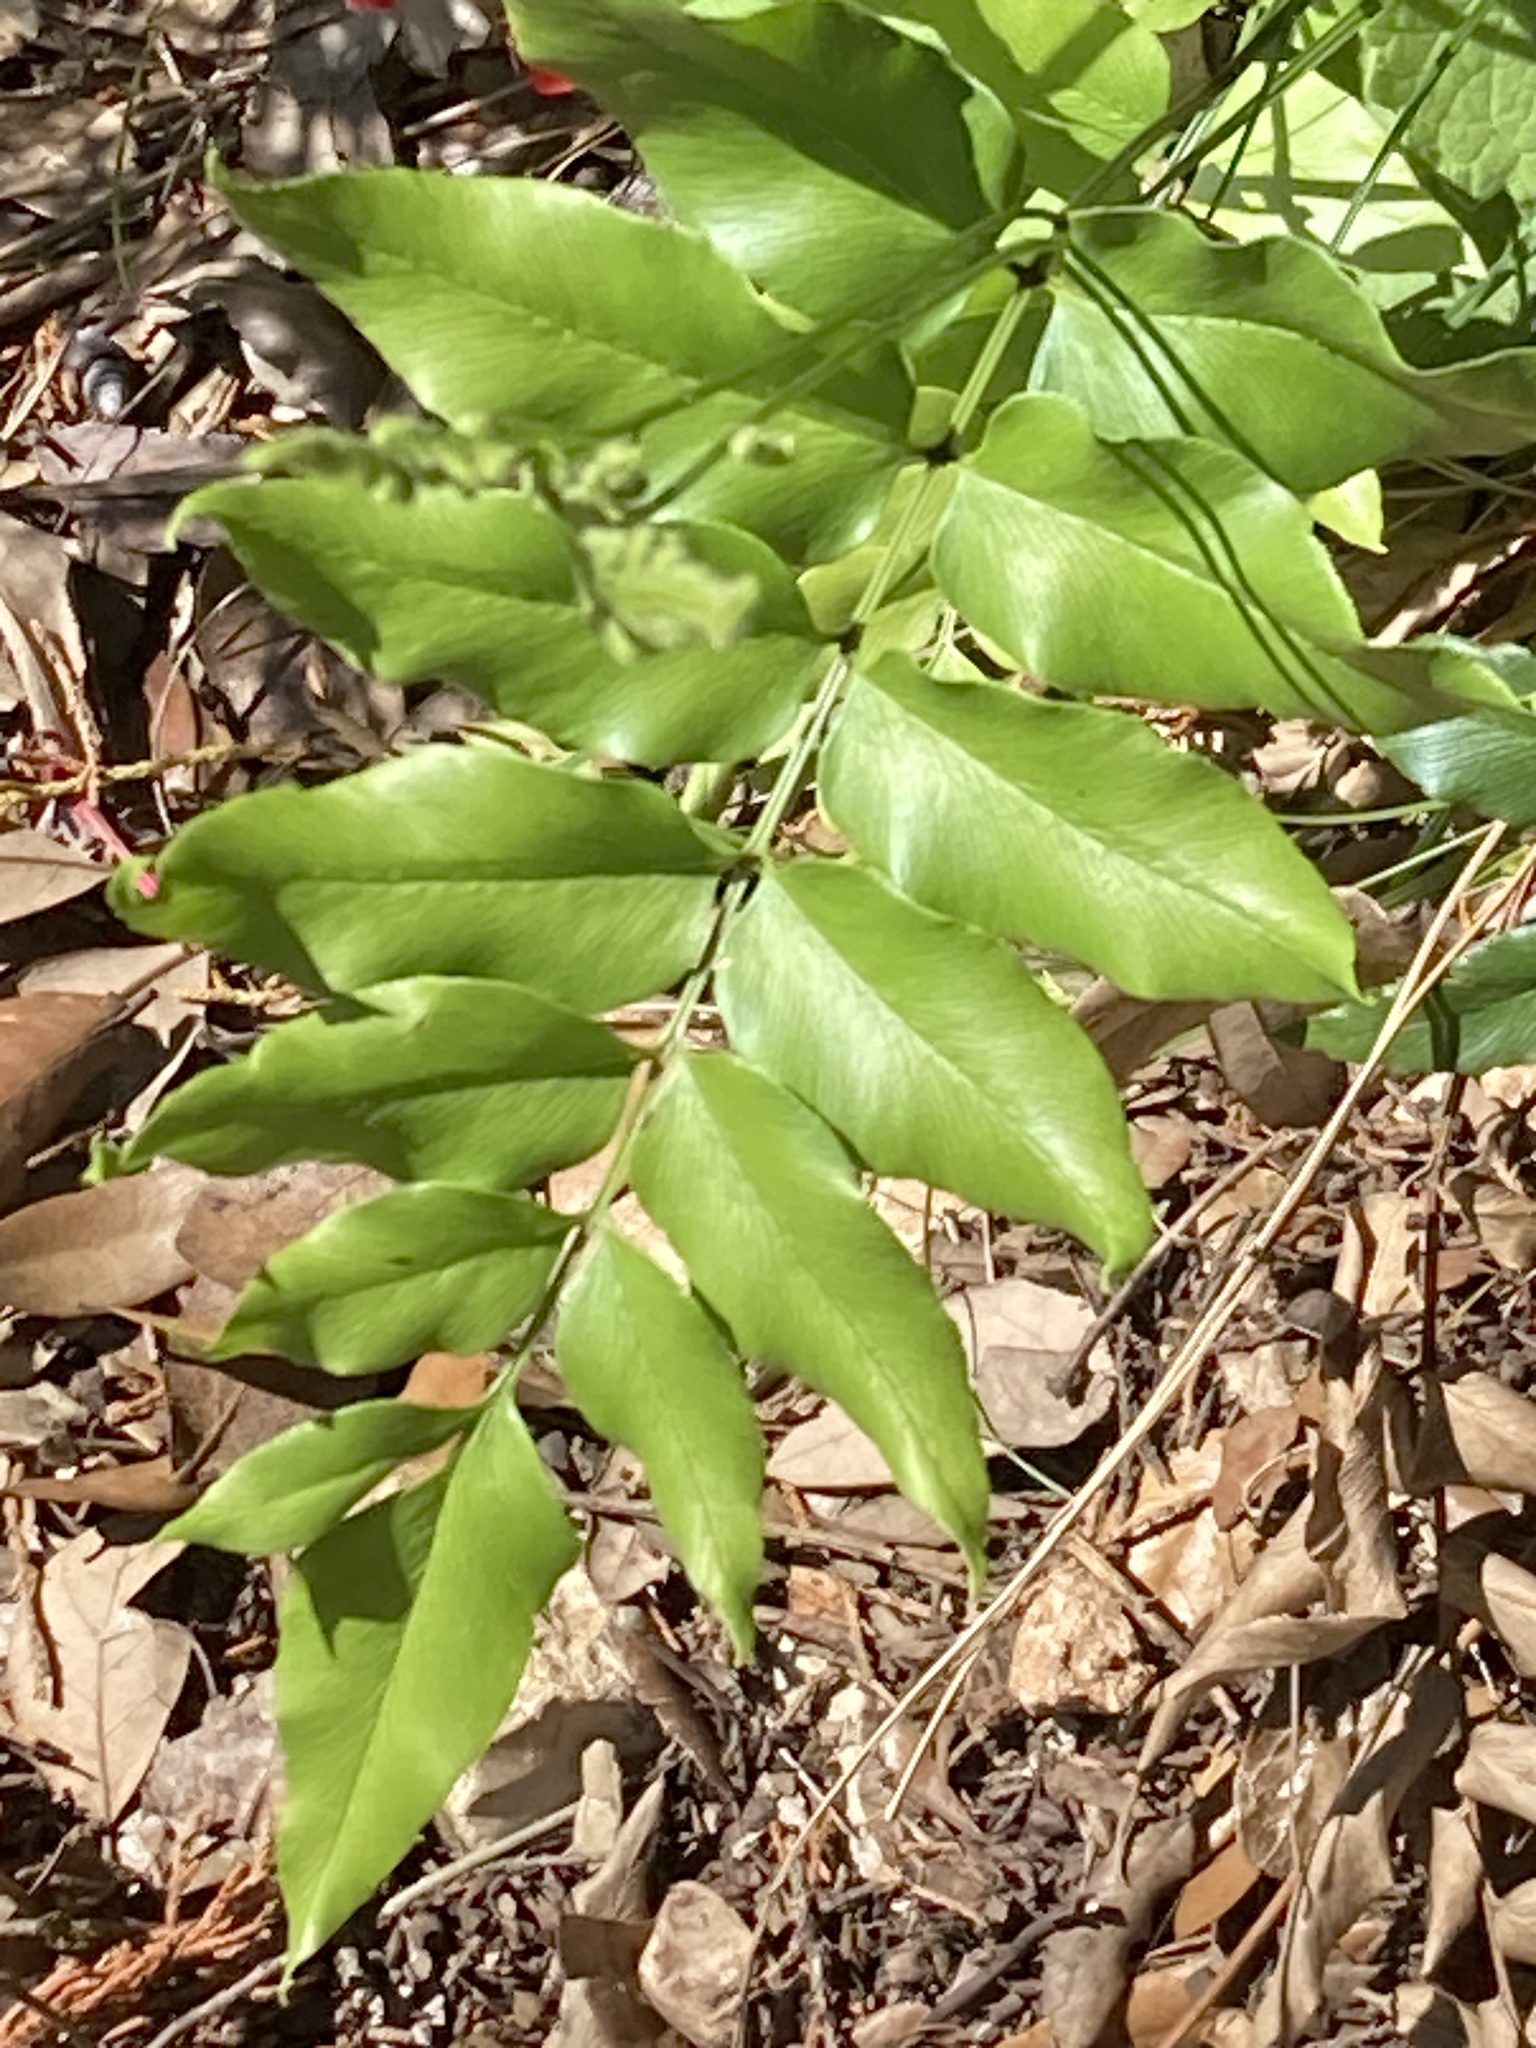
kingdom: Plantae
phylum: Tracheophyta
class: Polypodiopsida
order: Schizaeales
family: Anemiaceae
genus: Anemia
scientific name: Anemia mexicana
